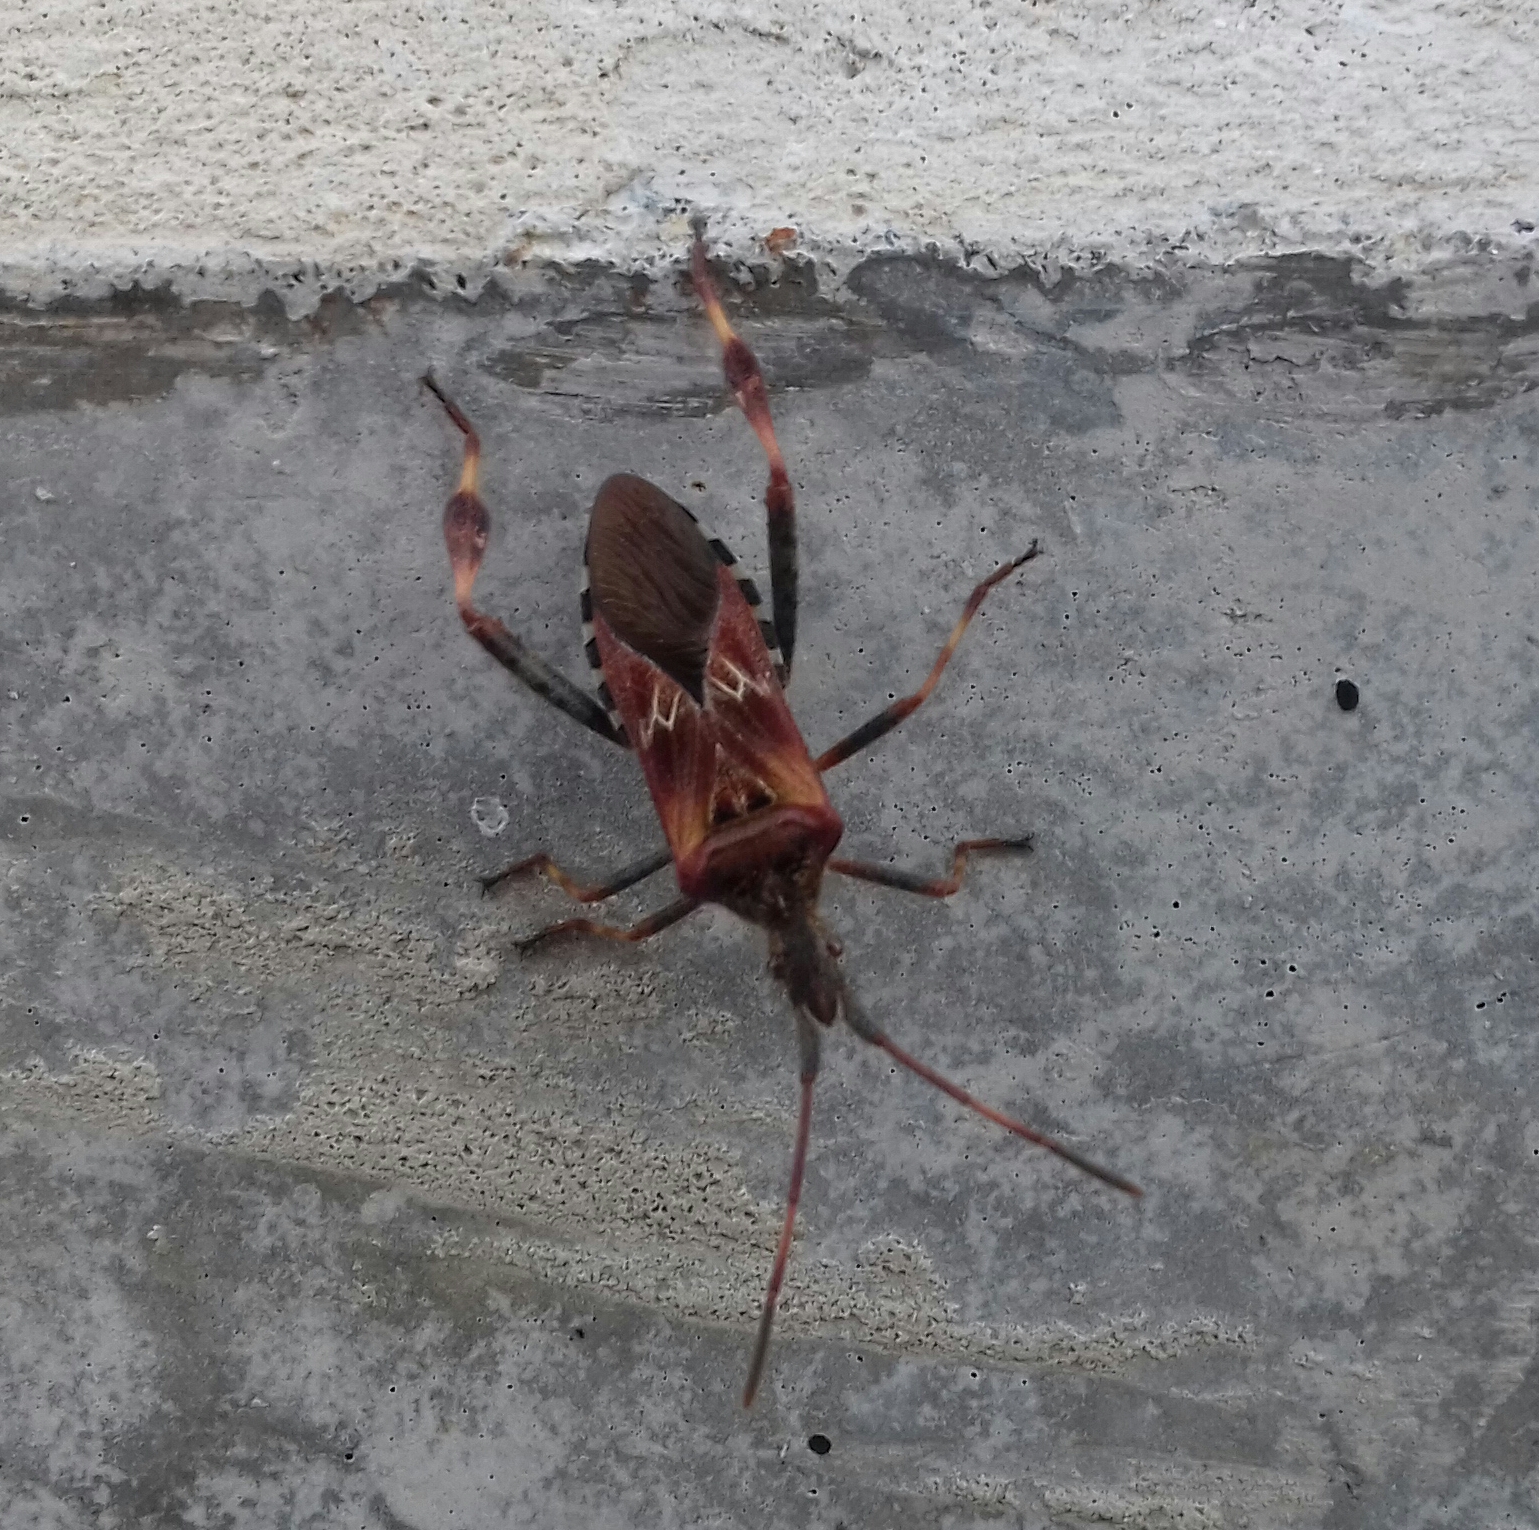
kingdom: Animalia
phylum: Arthropoda
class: Insecta
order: Hemiptera
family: Coreidae
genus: Leptoglossus
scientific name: Leptoglossus occidentalis
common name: Western conifer-seed bug
